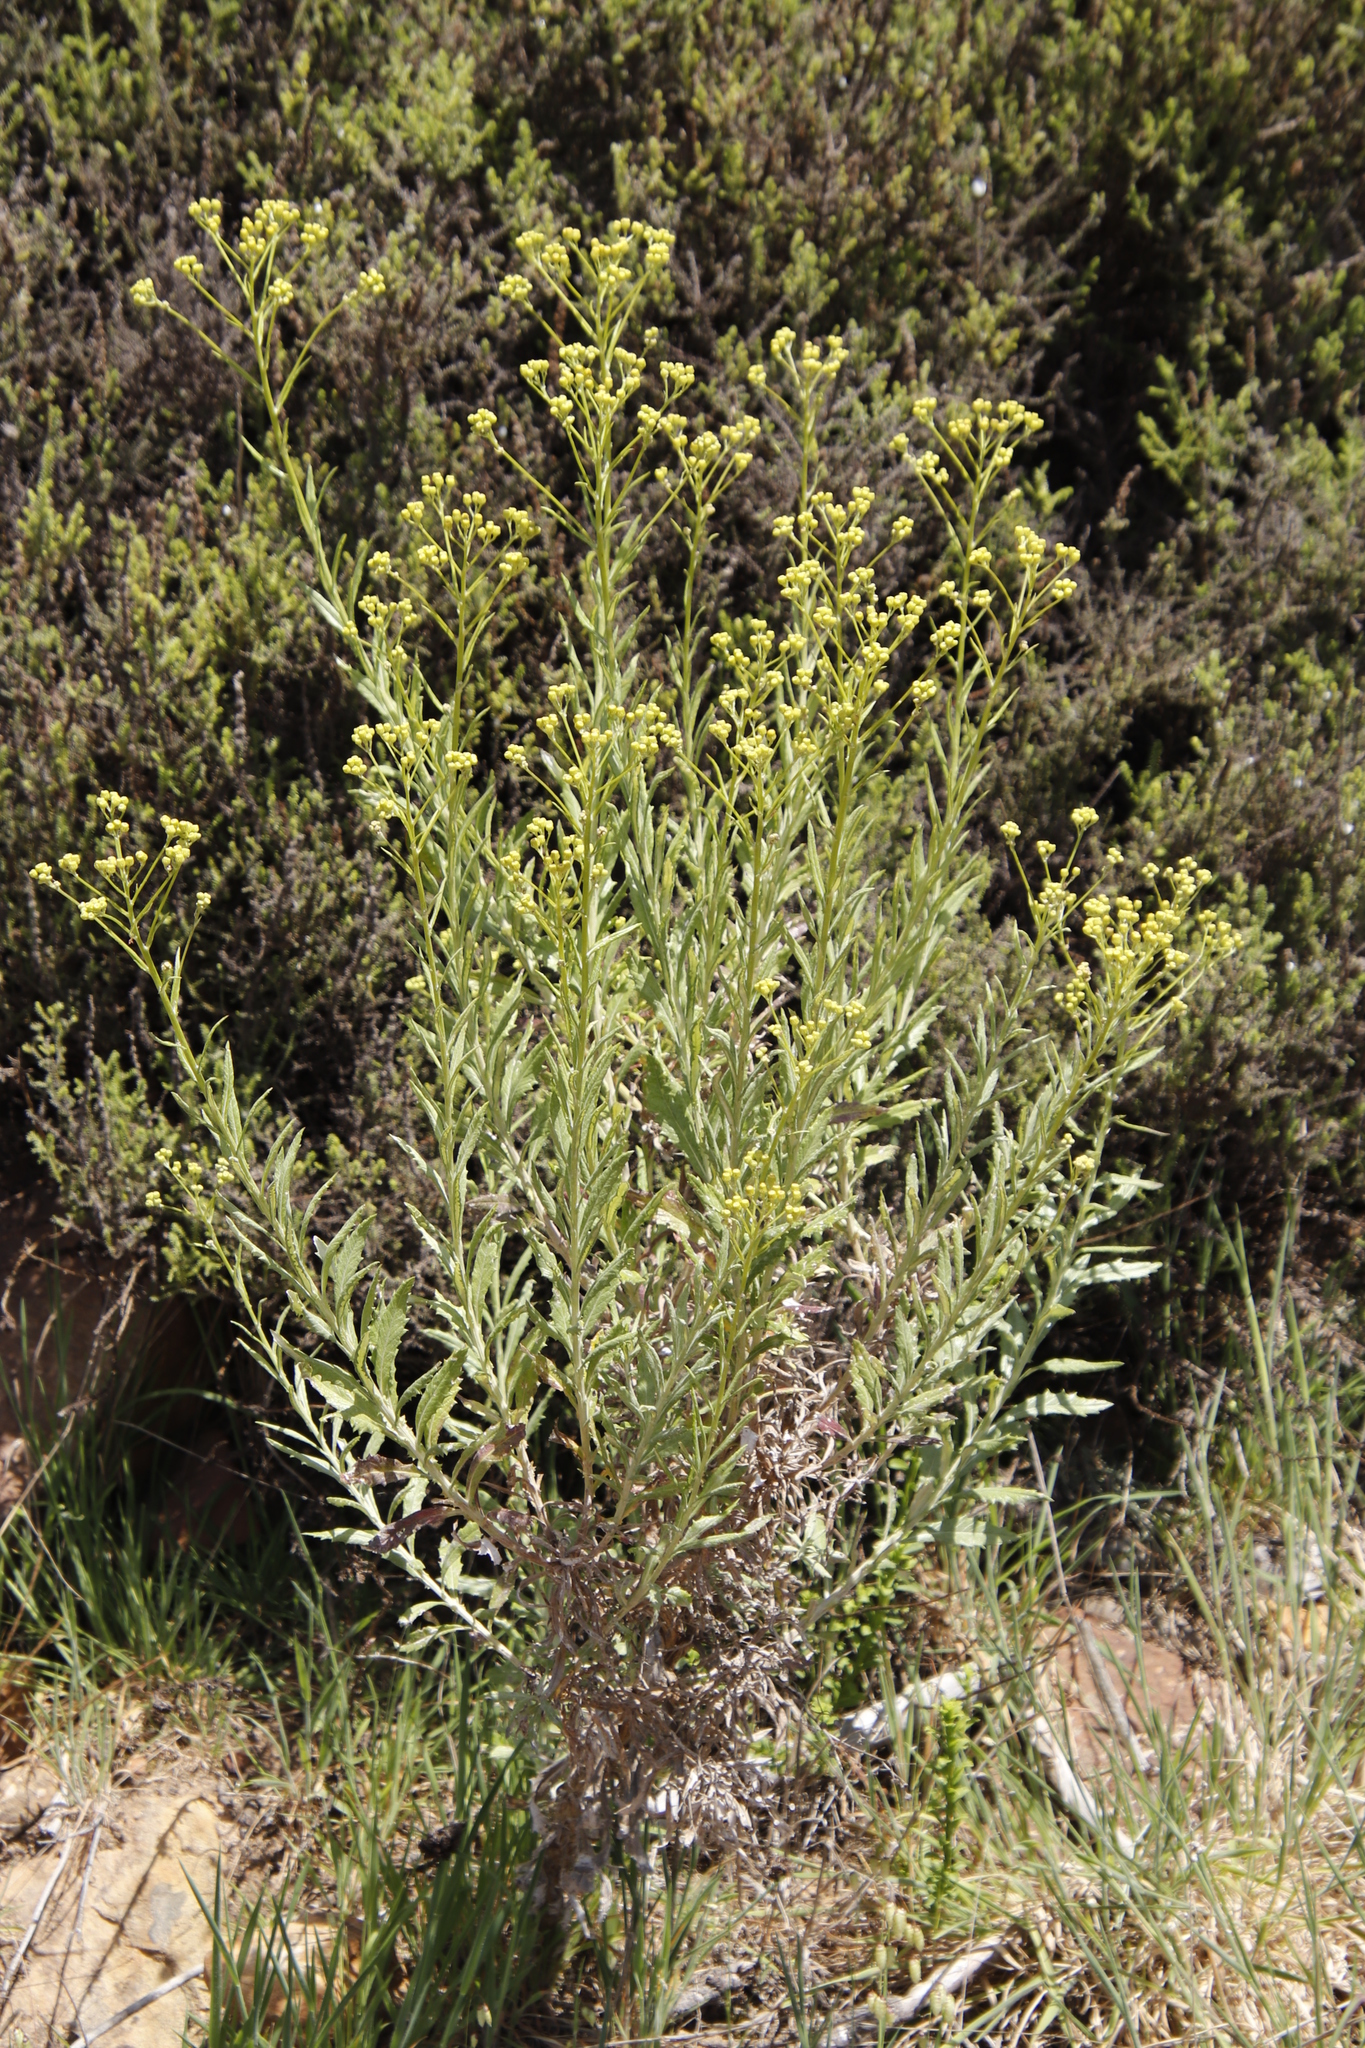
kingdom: Plantae
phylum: Tracheophyta
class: Magnoliopsida
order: Asterales
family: Asteraceae
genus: Senecio
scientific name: Senecio pterophorus
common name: Shoddy ragwort
